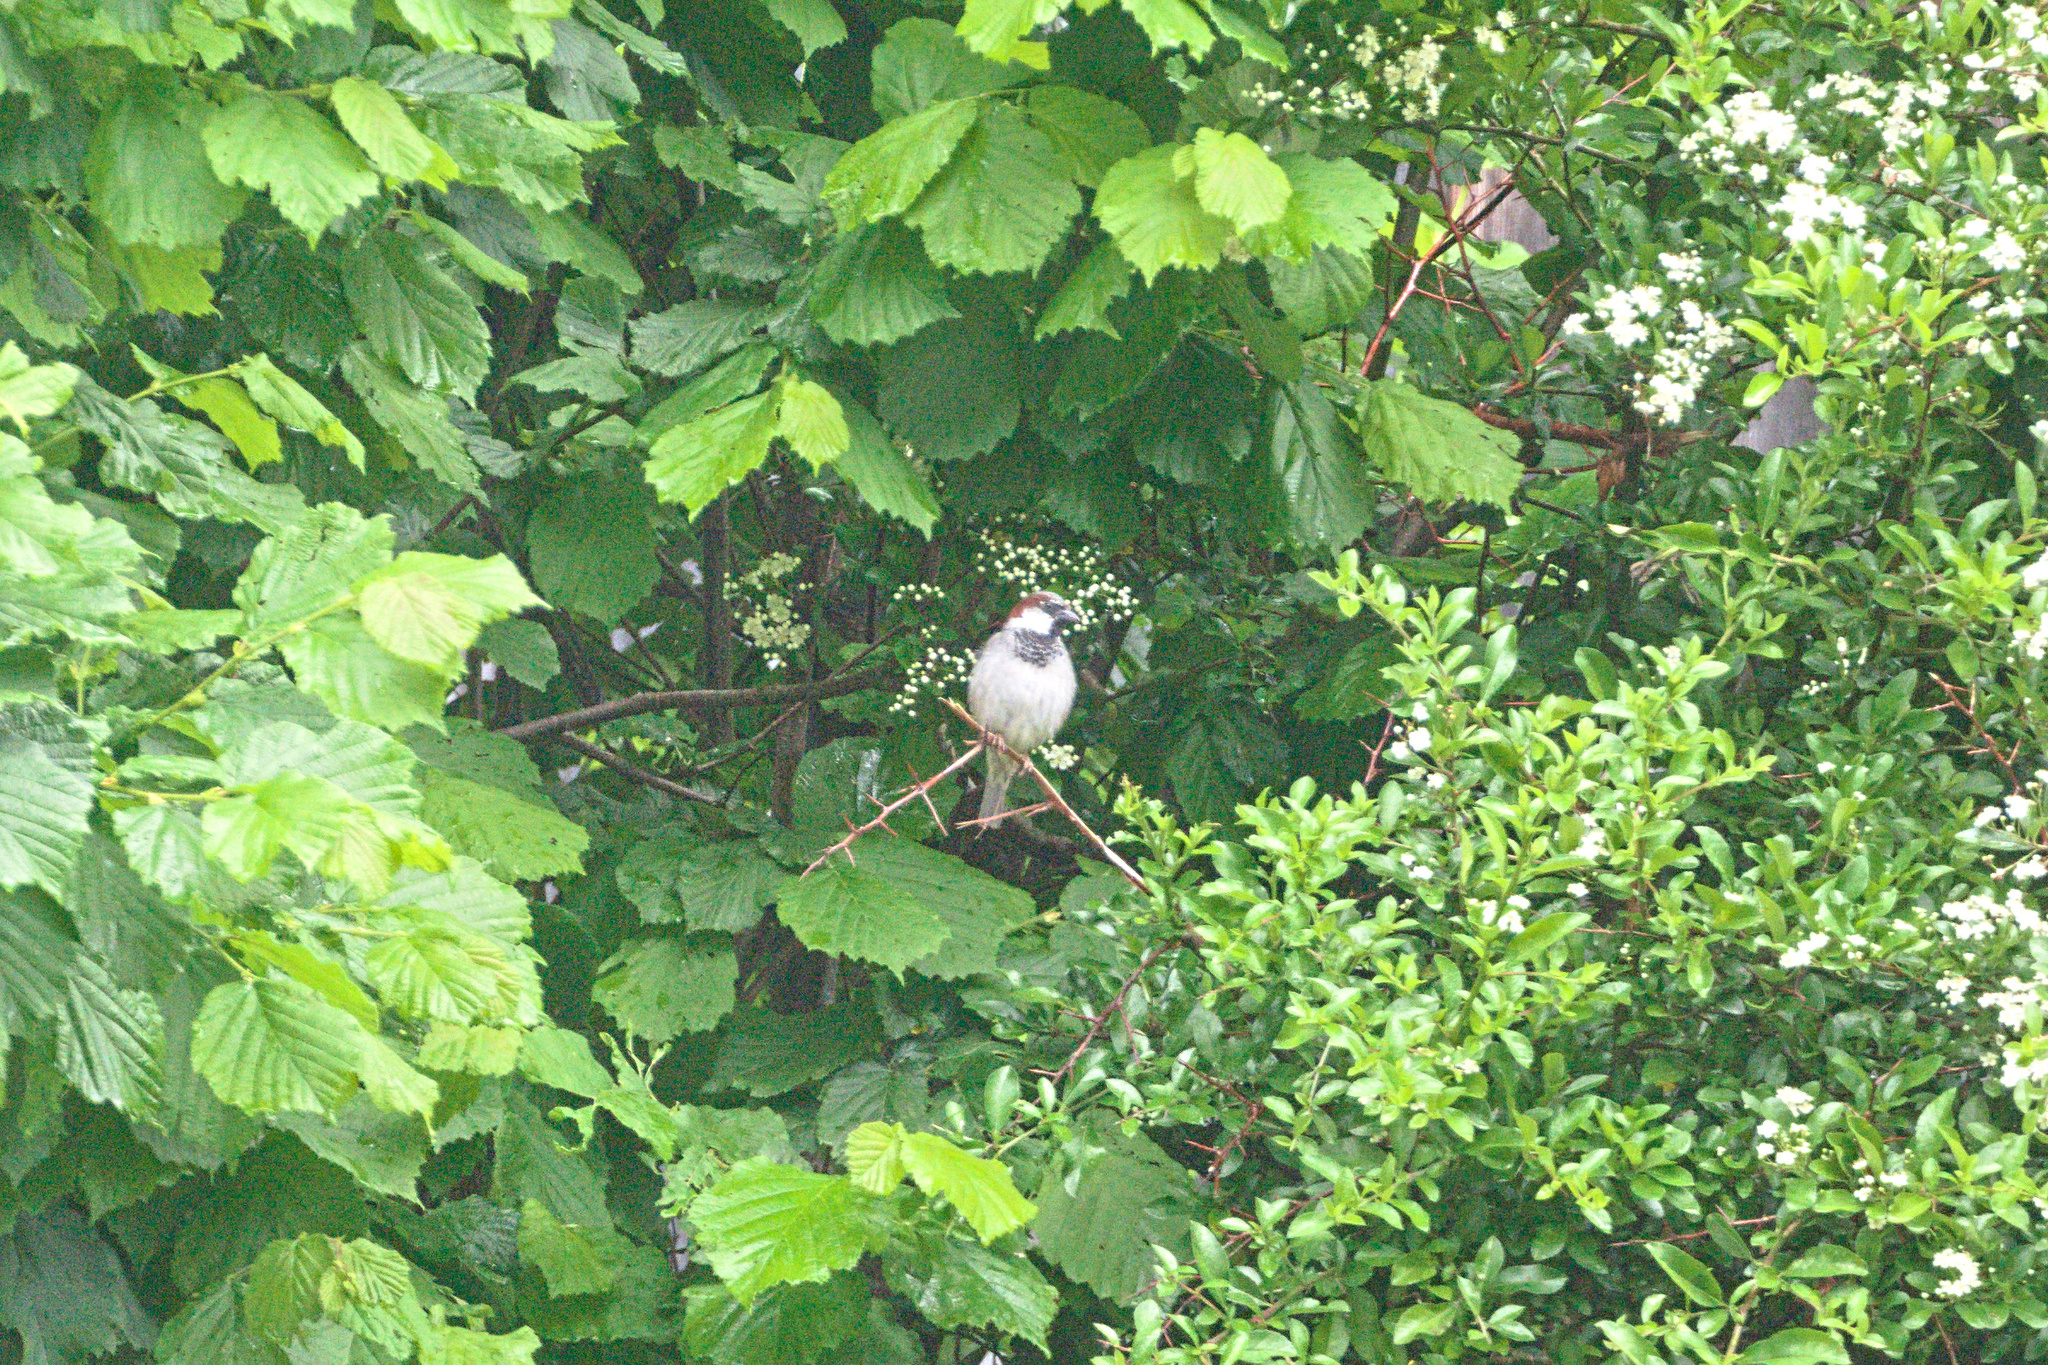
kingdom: Animalia
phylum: Chordata
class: Aves
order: Passeriformes
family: Passeridae
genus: Passer
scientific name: Passer domesticus
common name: House sparrow
